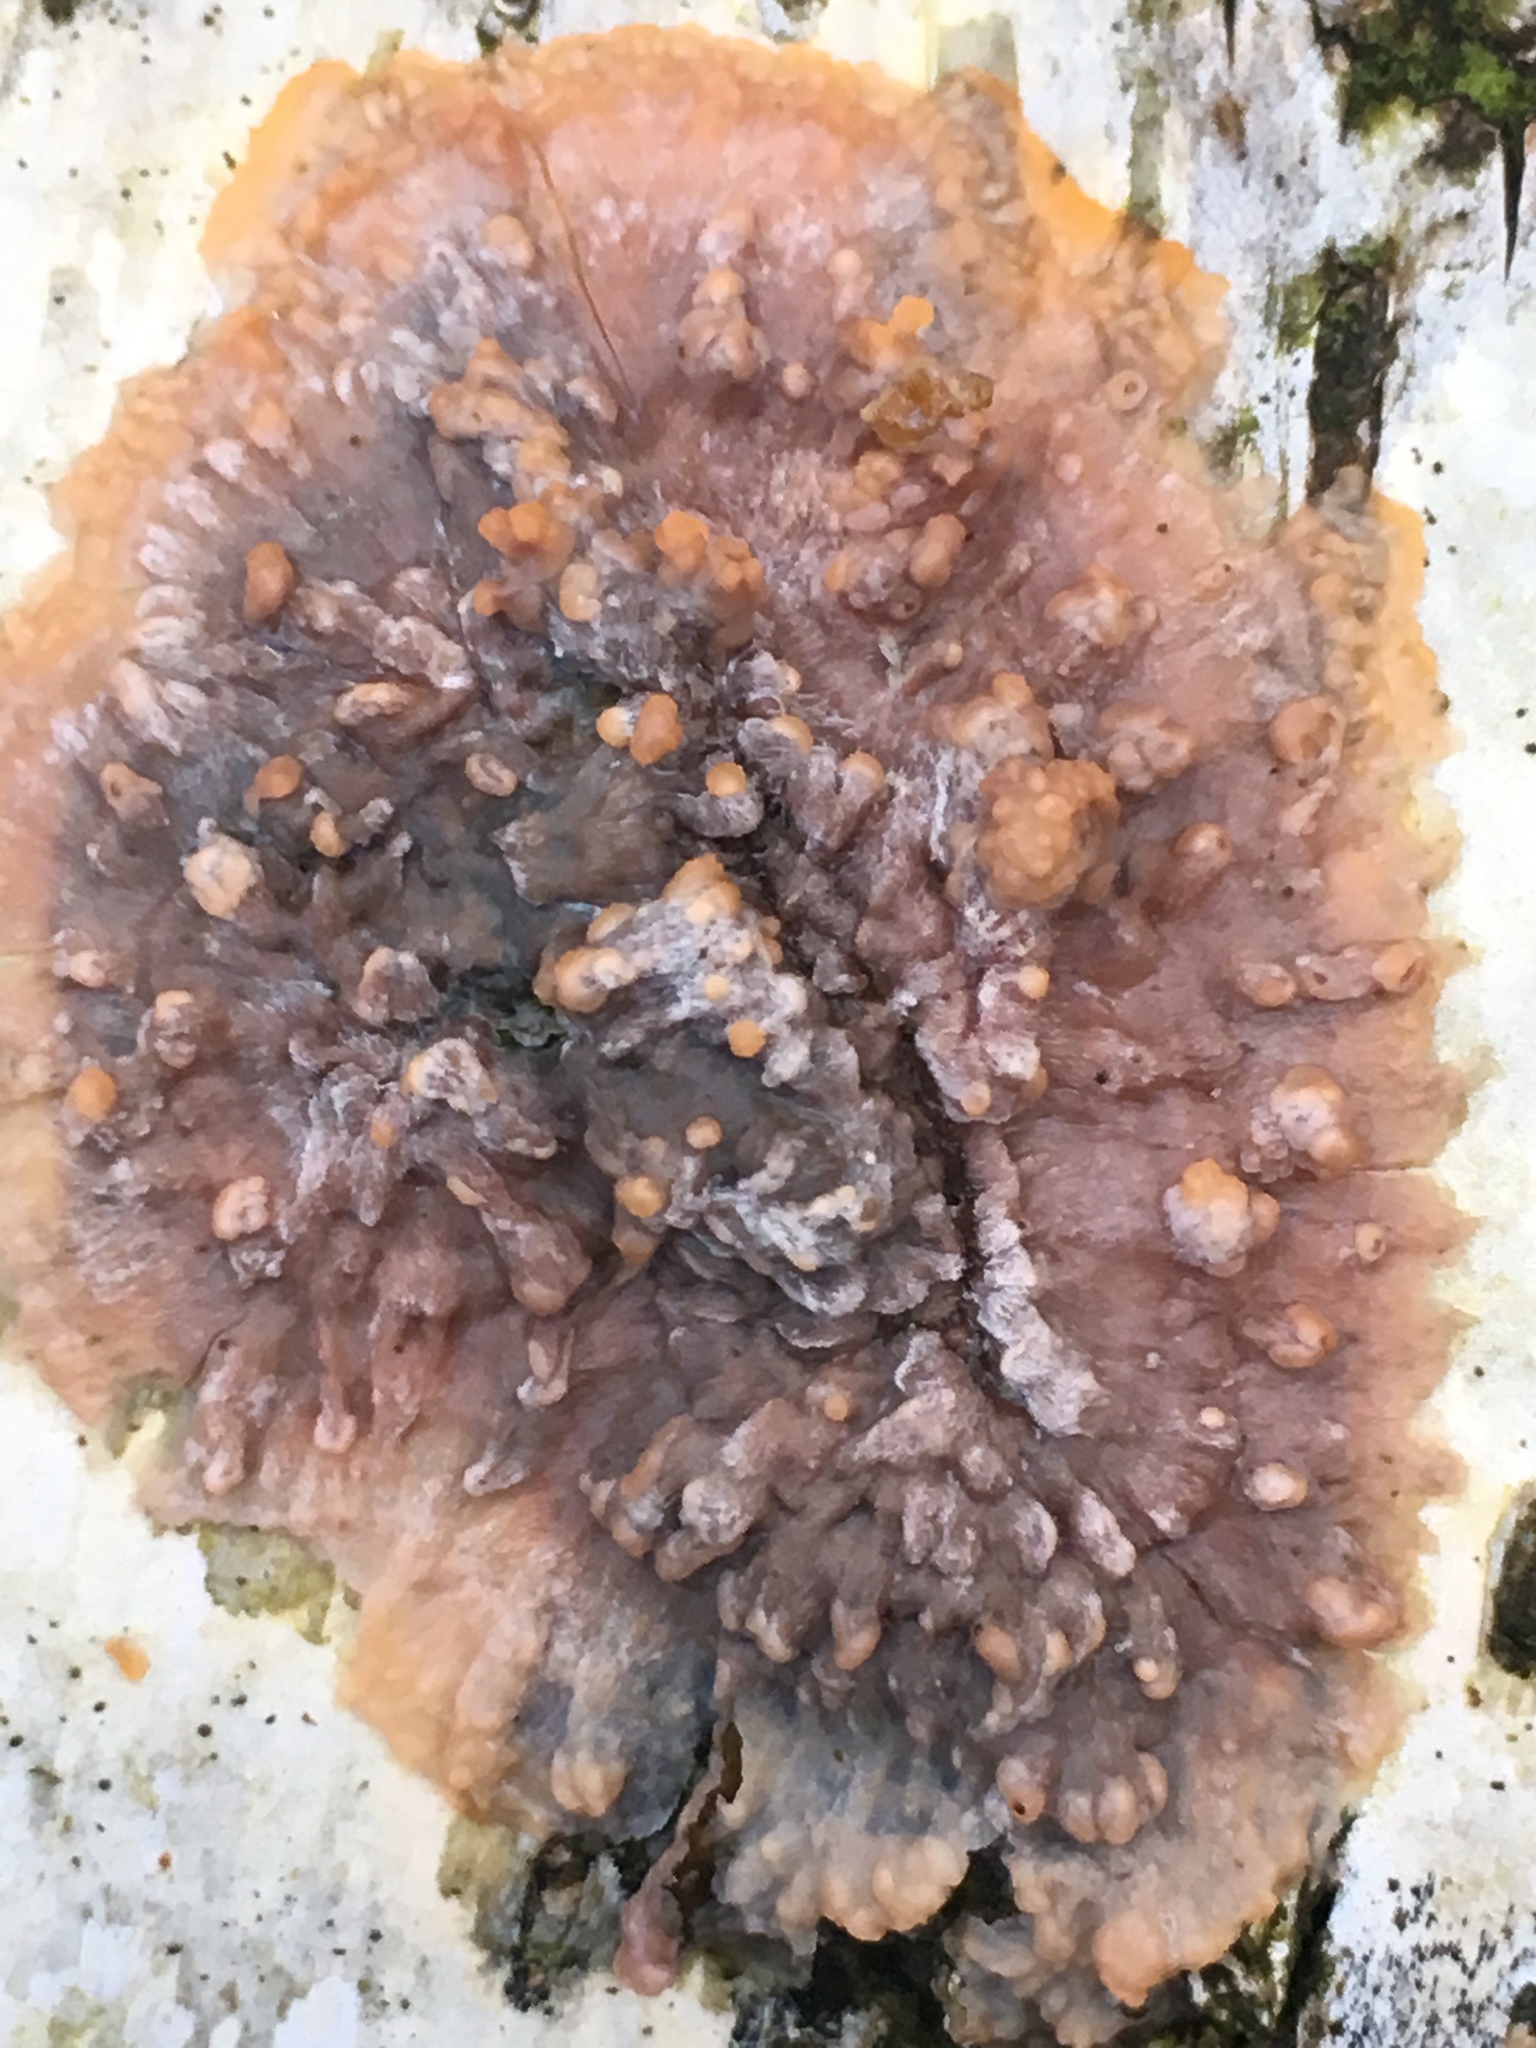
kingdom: Fungi
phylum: Basidiomycota
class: Agaricomycetes
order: Polyporales
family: Meruliaceae
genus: Phlebia
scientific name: Phlebia radiata
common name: Wrinkled crust
